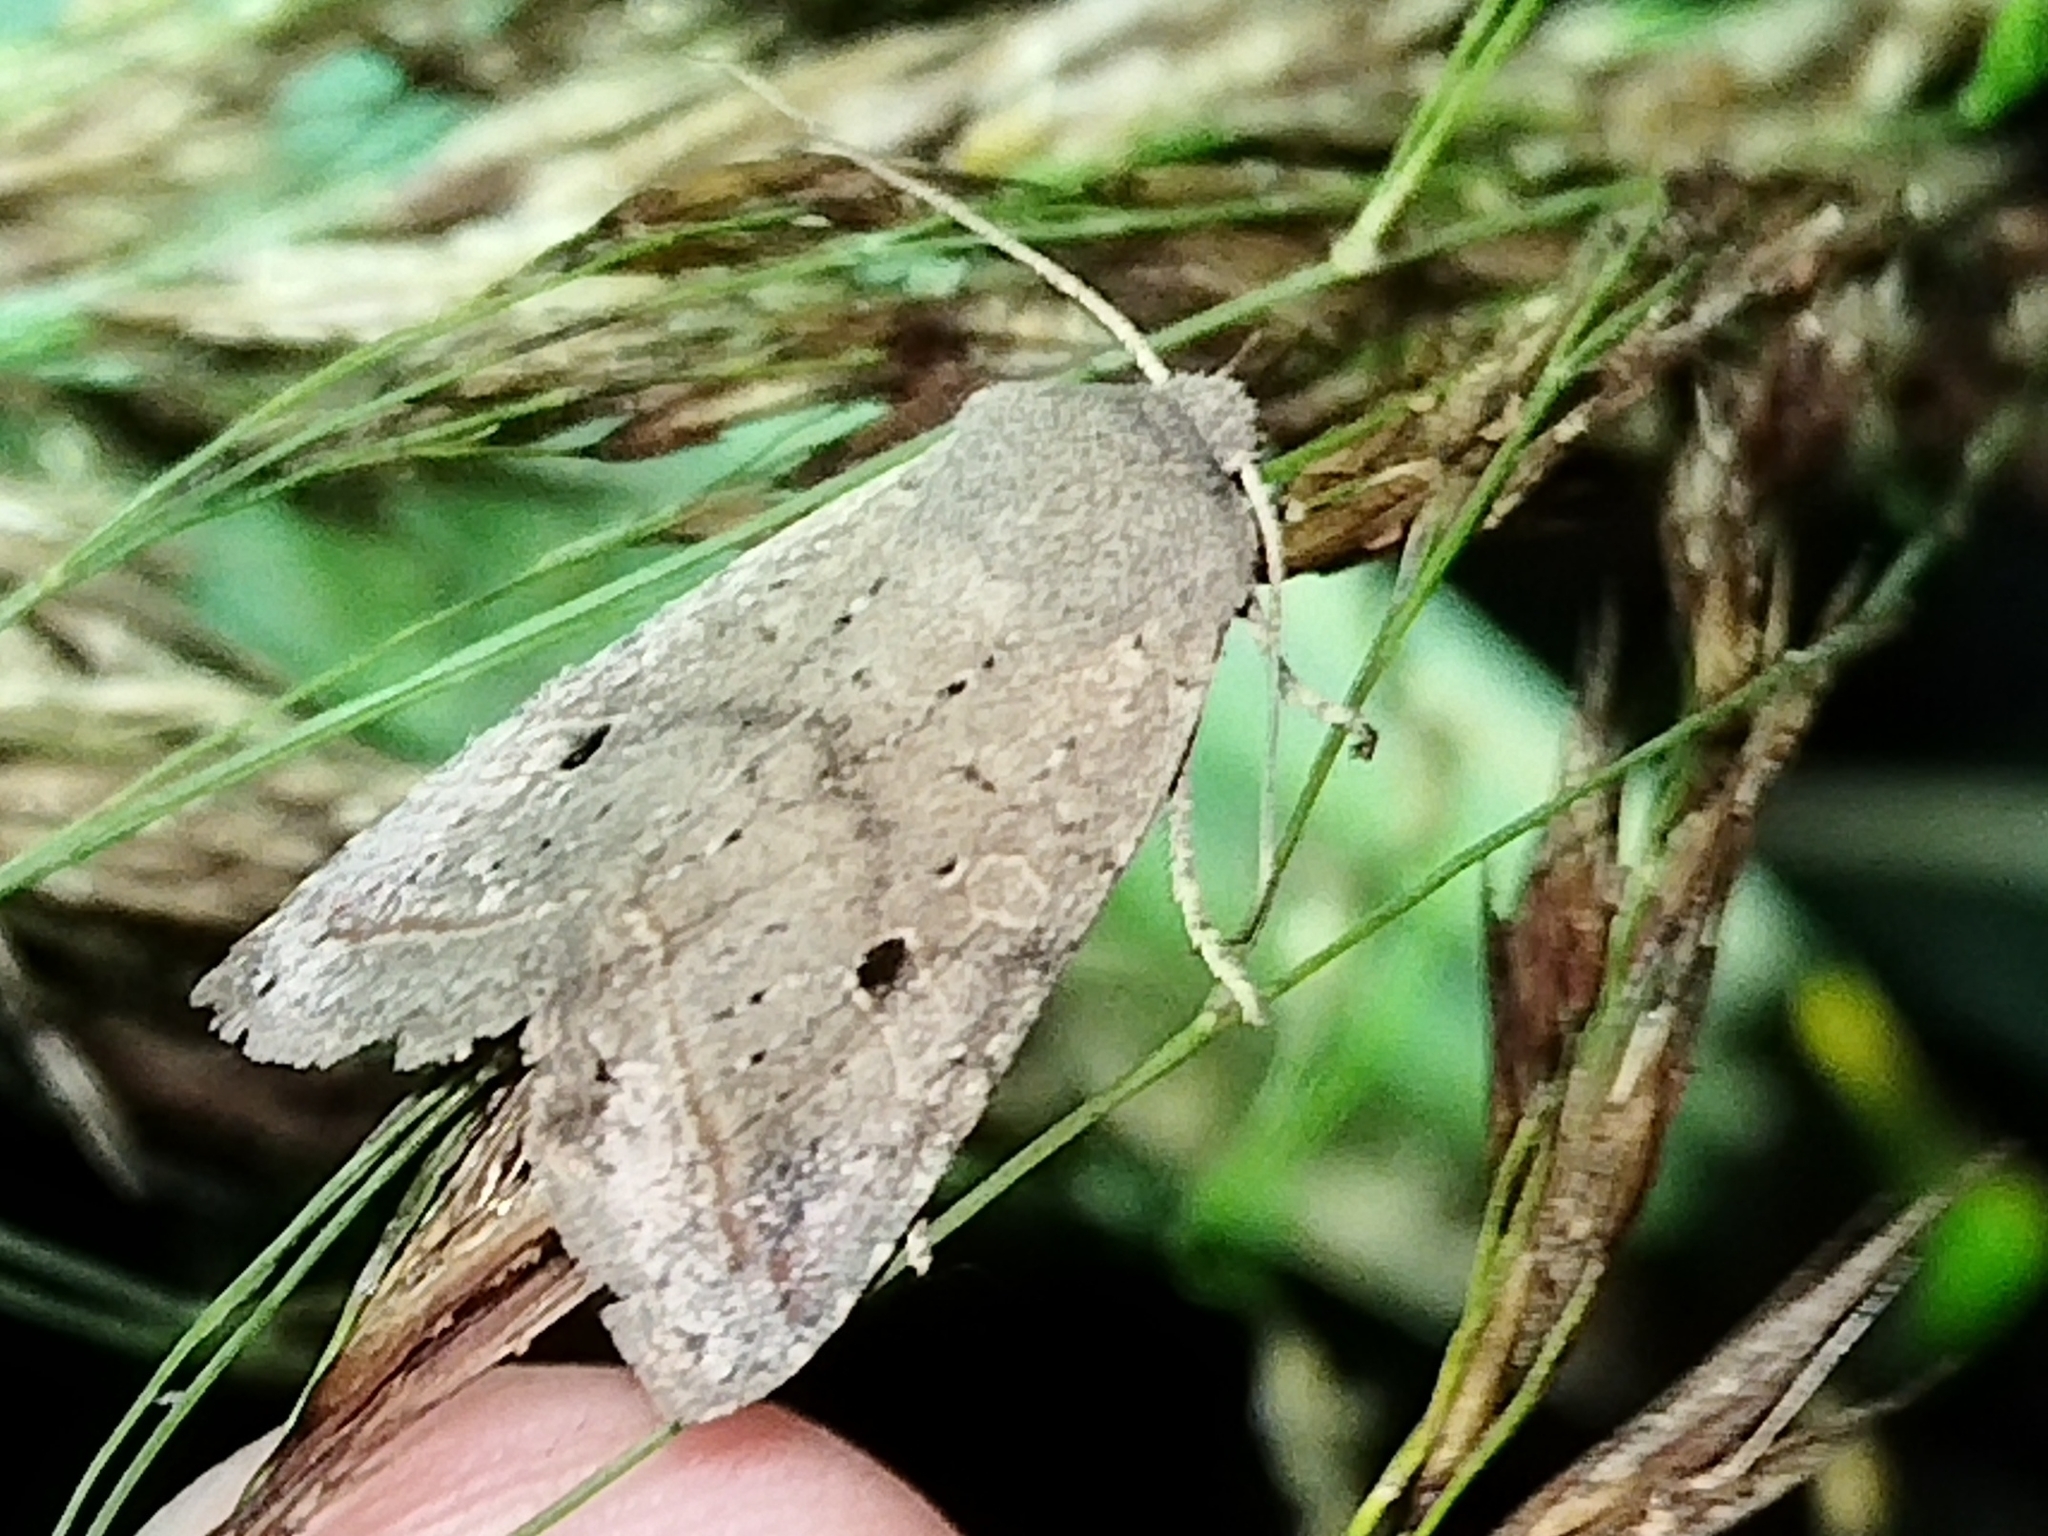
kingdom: Animalia
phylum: Arthropoda
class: Insecta
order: Lepidoptera
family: Noctuidae
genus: Agrochola
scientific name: Agrochola lota
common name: Red-line quaker
